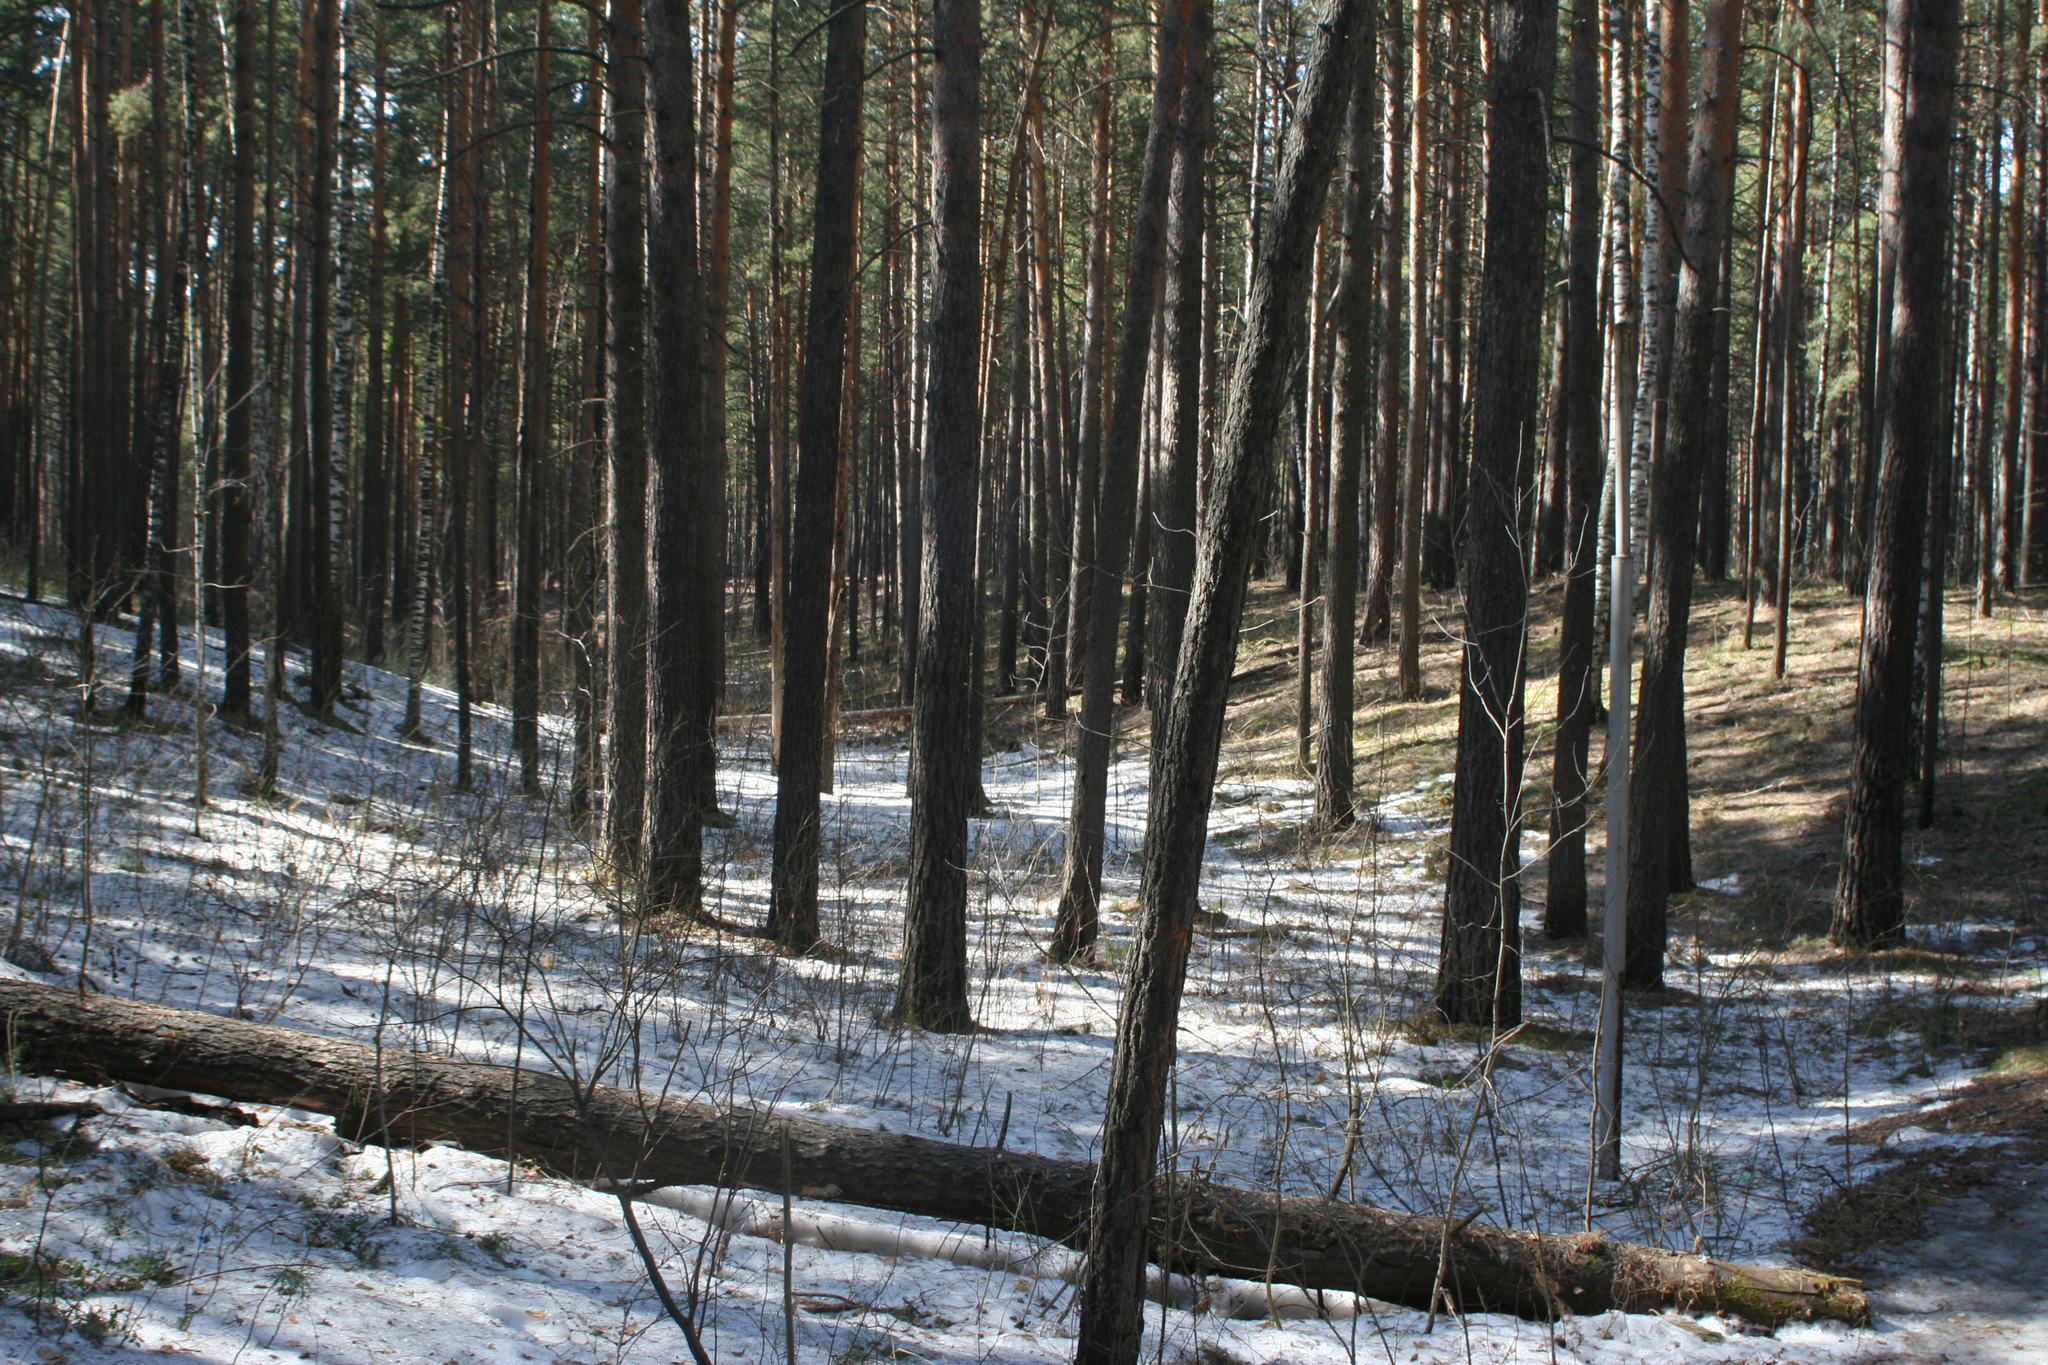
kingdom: Plantae
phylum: Tracheophyta
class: Pinopsida
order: Pinales
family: Pinaceae
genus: Pinus
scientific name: Pinus sylvestris
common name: Scots pine
